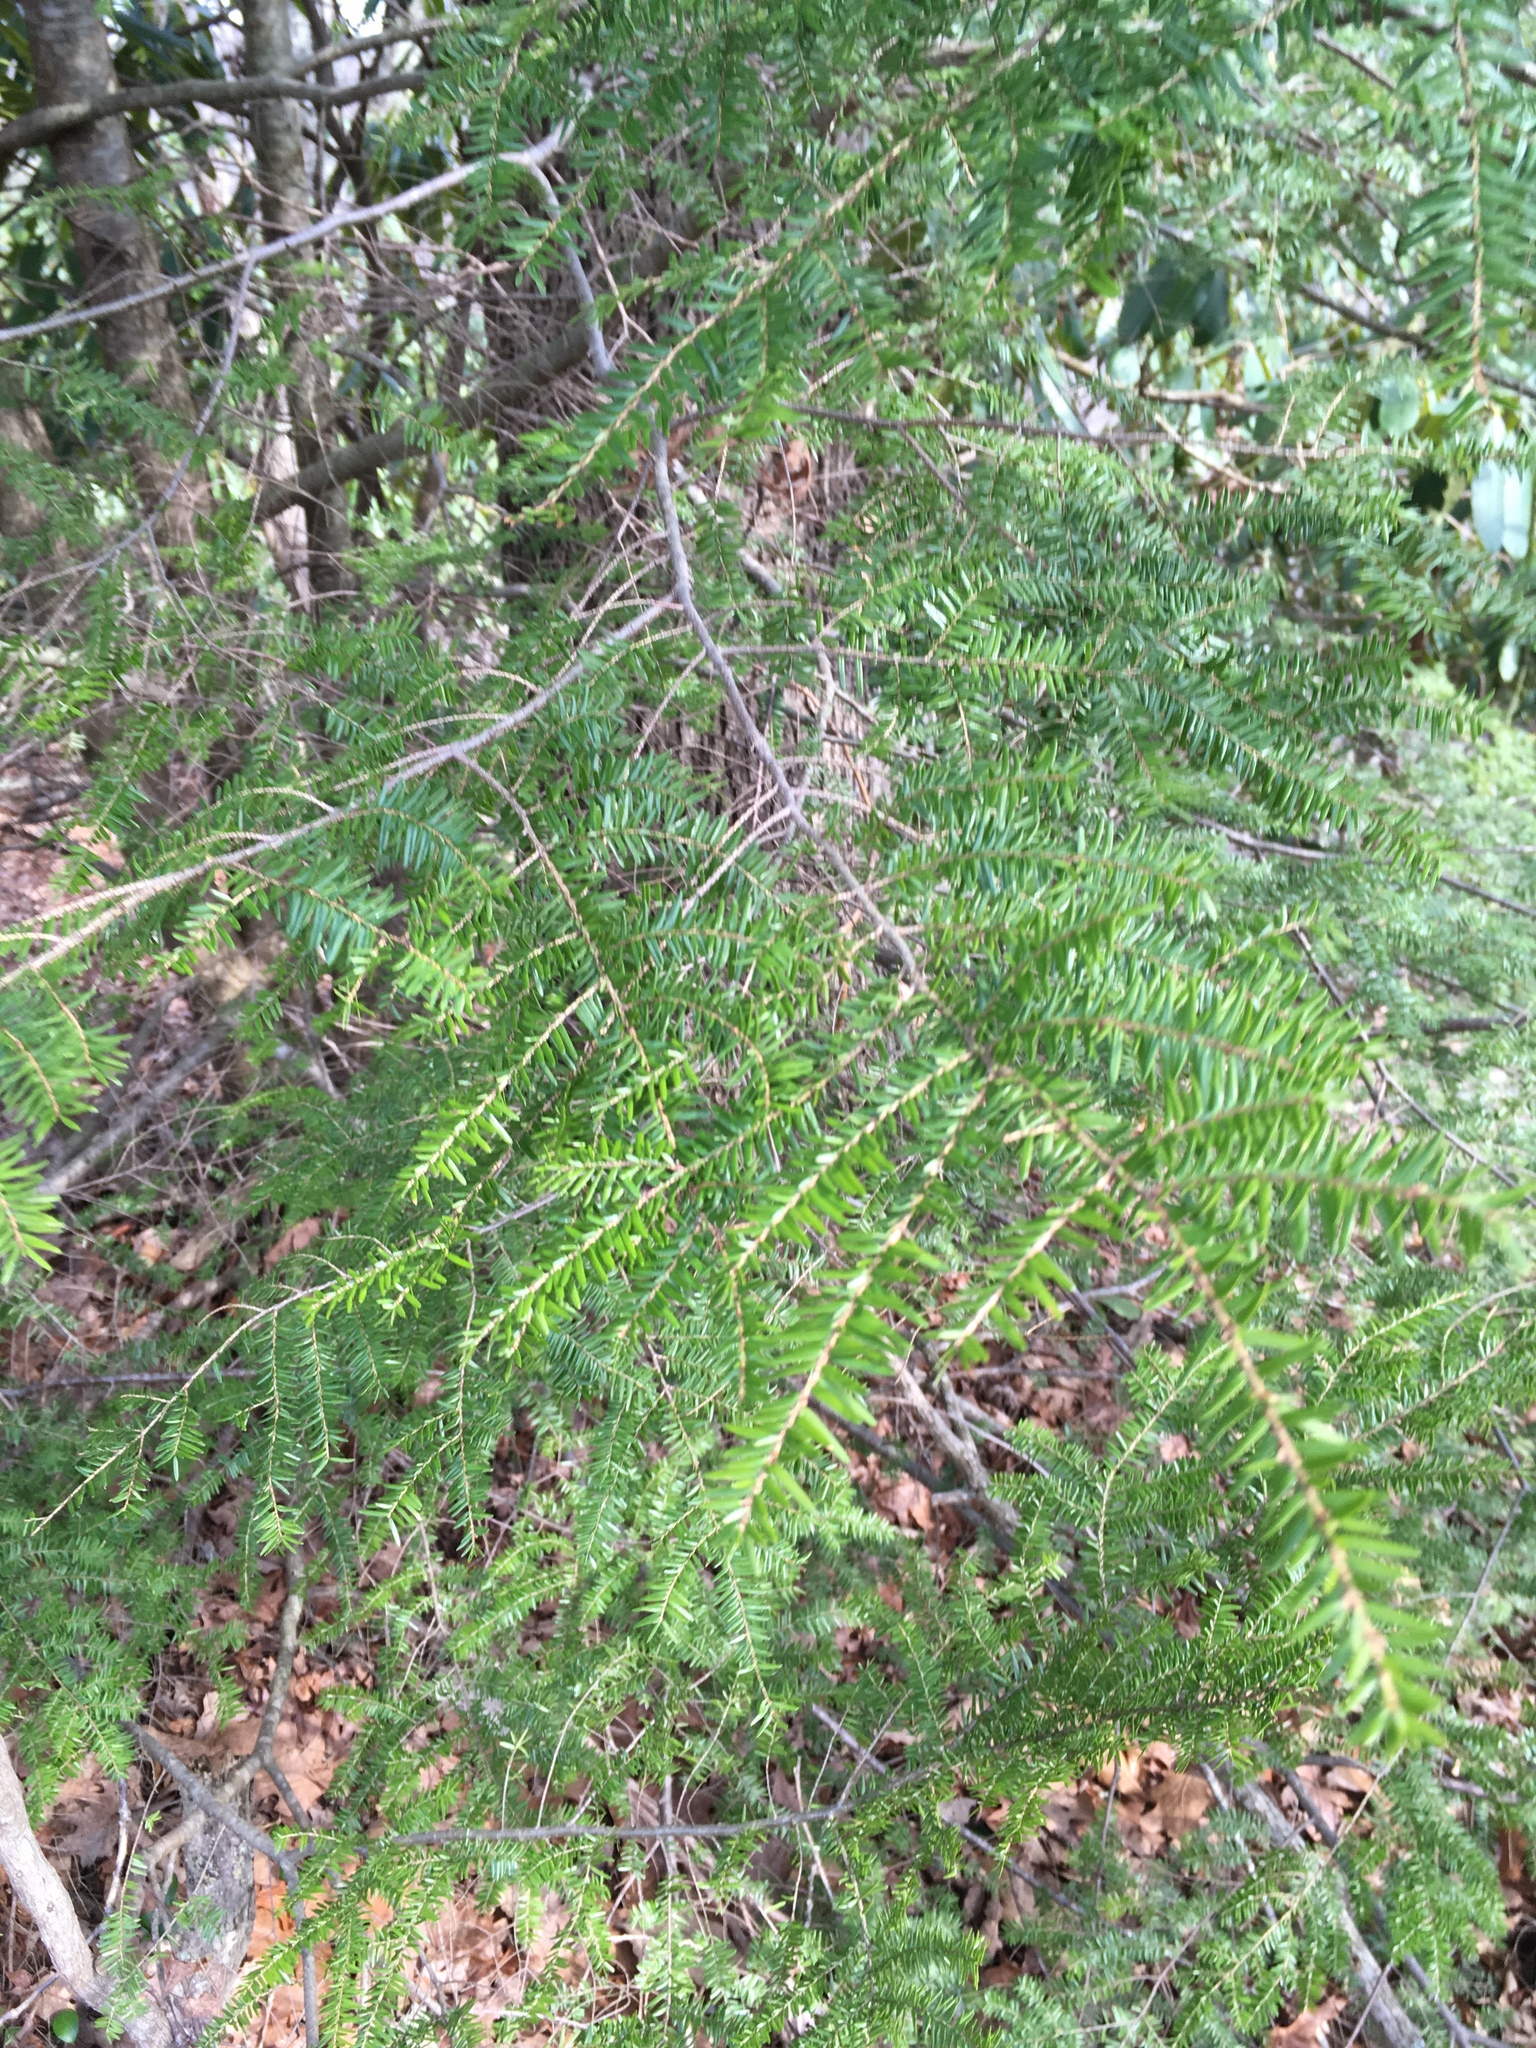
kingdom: Plantae
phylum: Tracheophyta
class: Pinopsida
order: Pinales
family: Pinaceae
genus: Tsuga
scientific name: Tsuga canadensis
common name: Eastern hemlock
